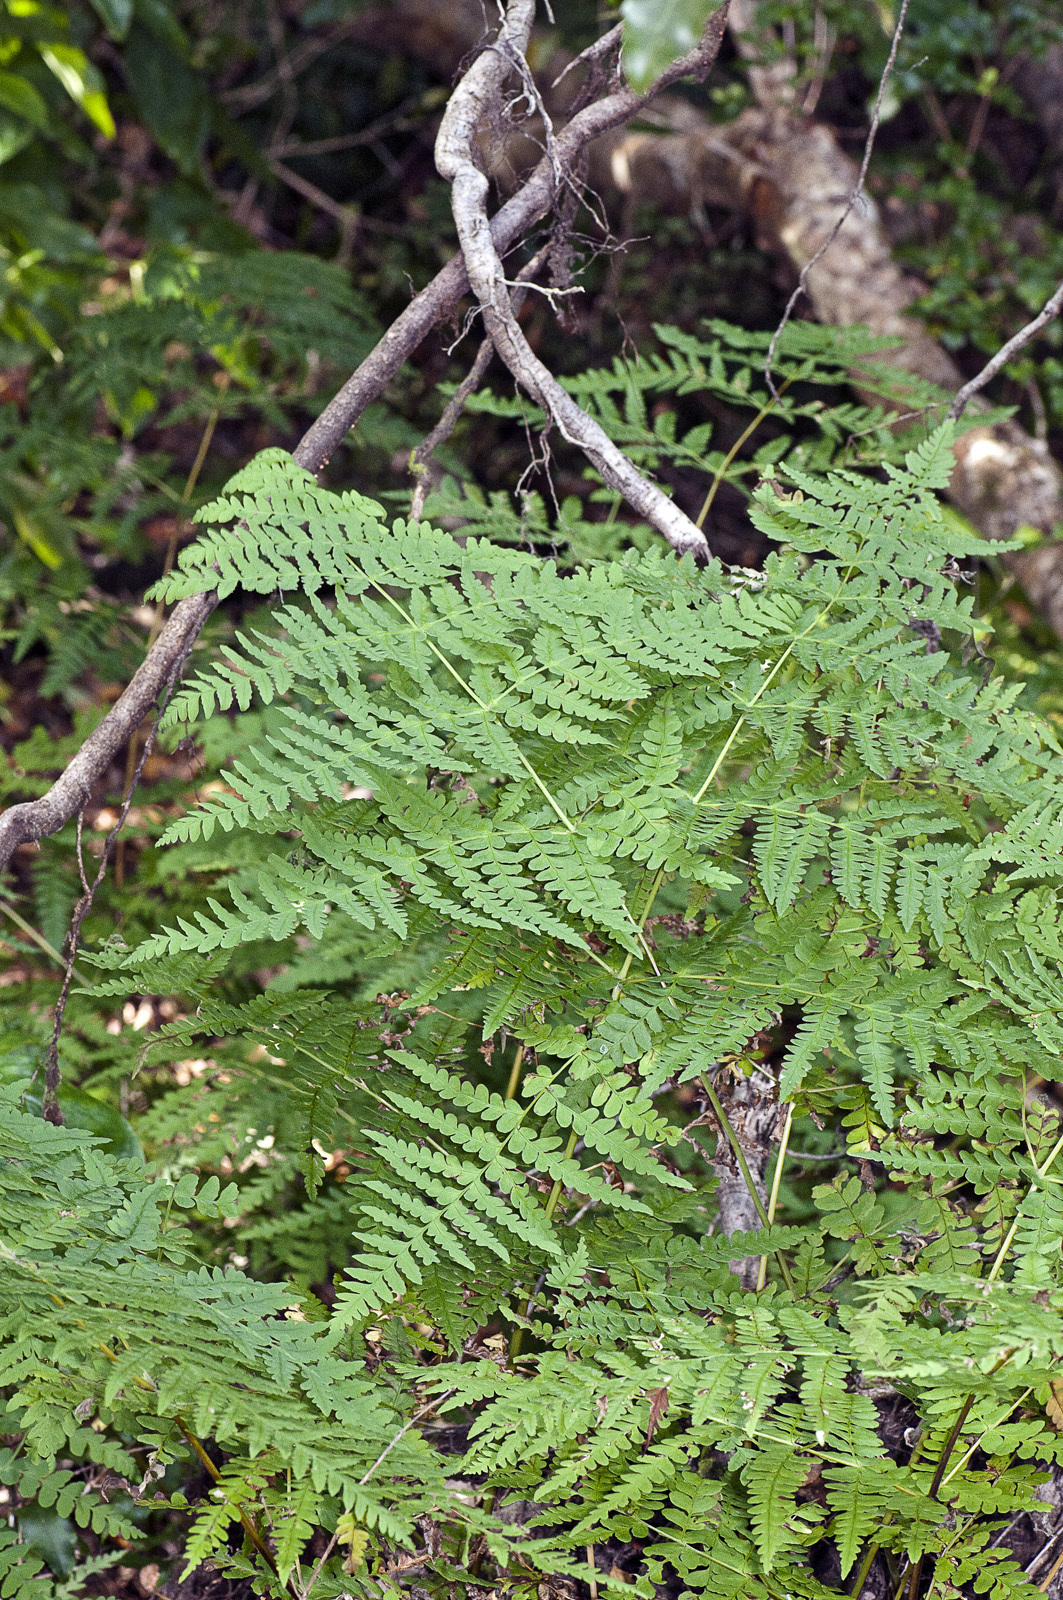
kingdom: Plantae
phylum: Tracheophyta
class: Polypodiopsida
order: Polypodiales
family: Dennstaedtiaceae
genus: Histiopteris
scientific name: Histiopteris incisa
